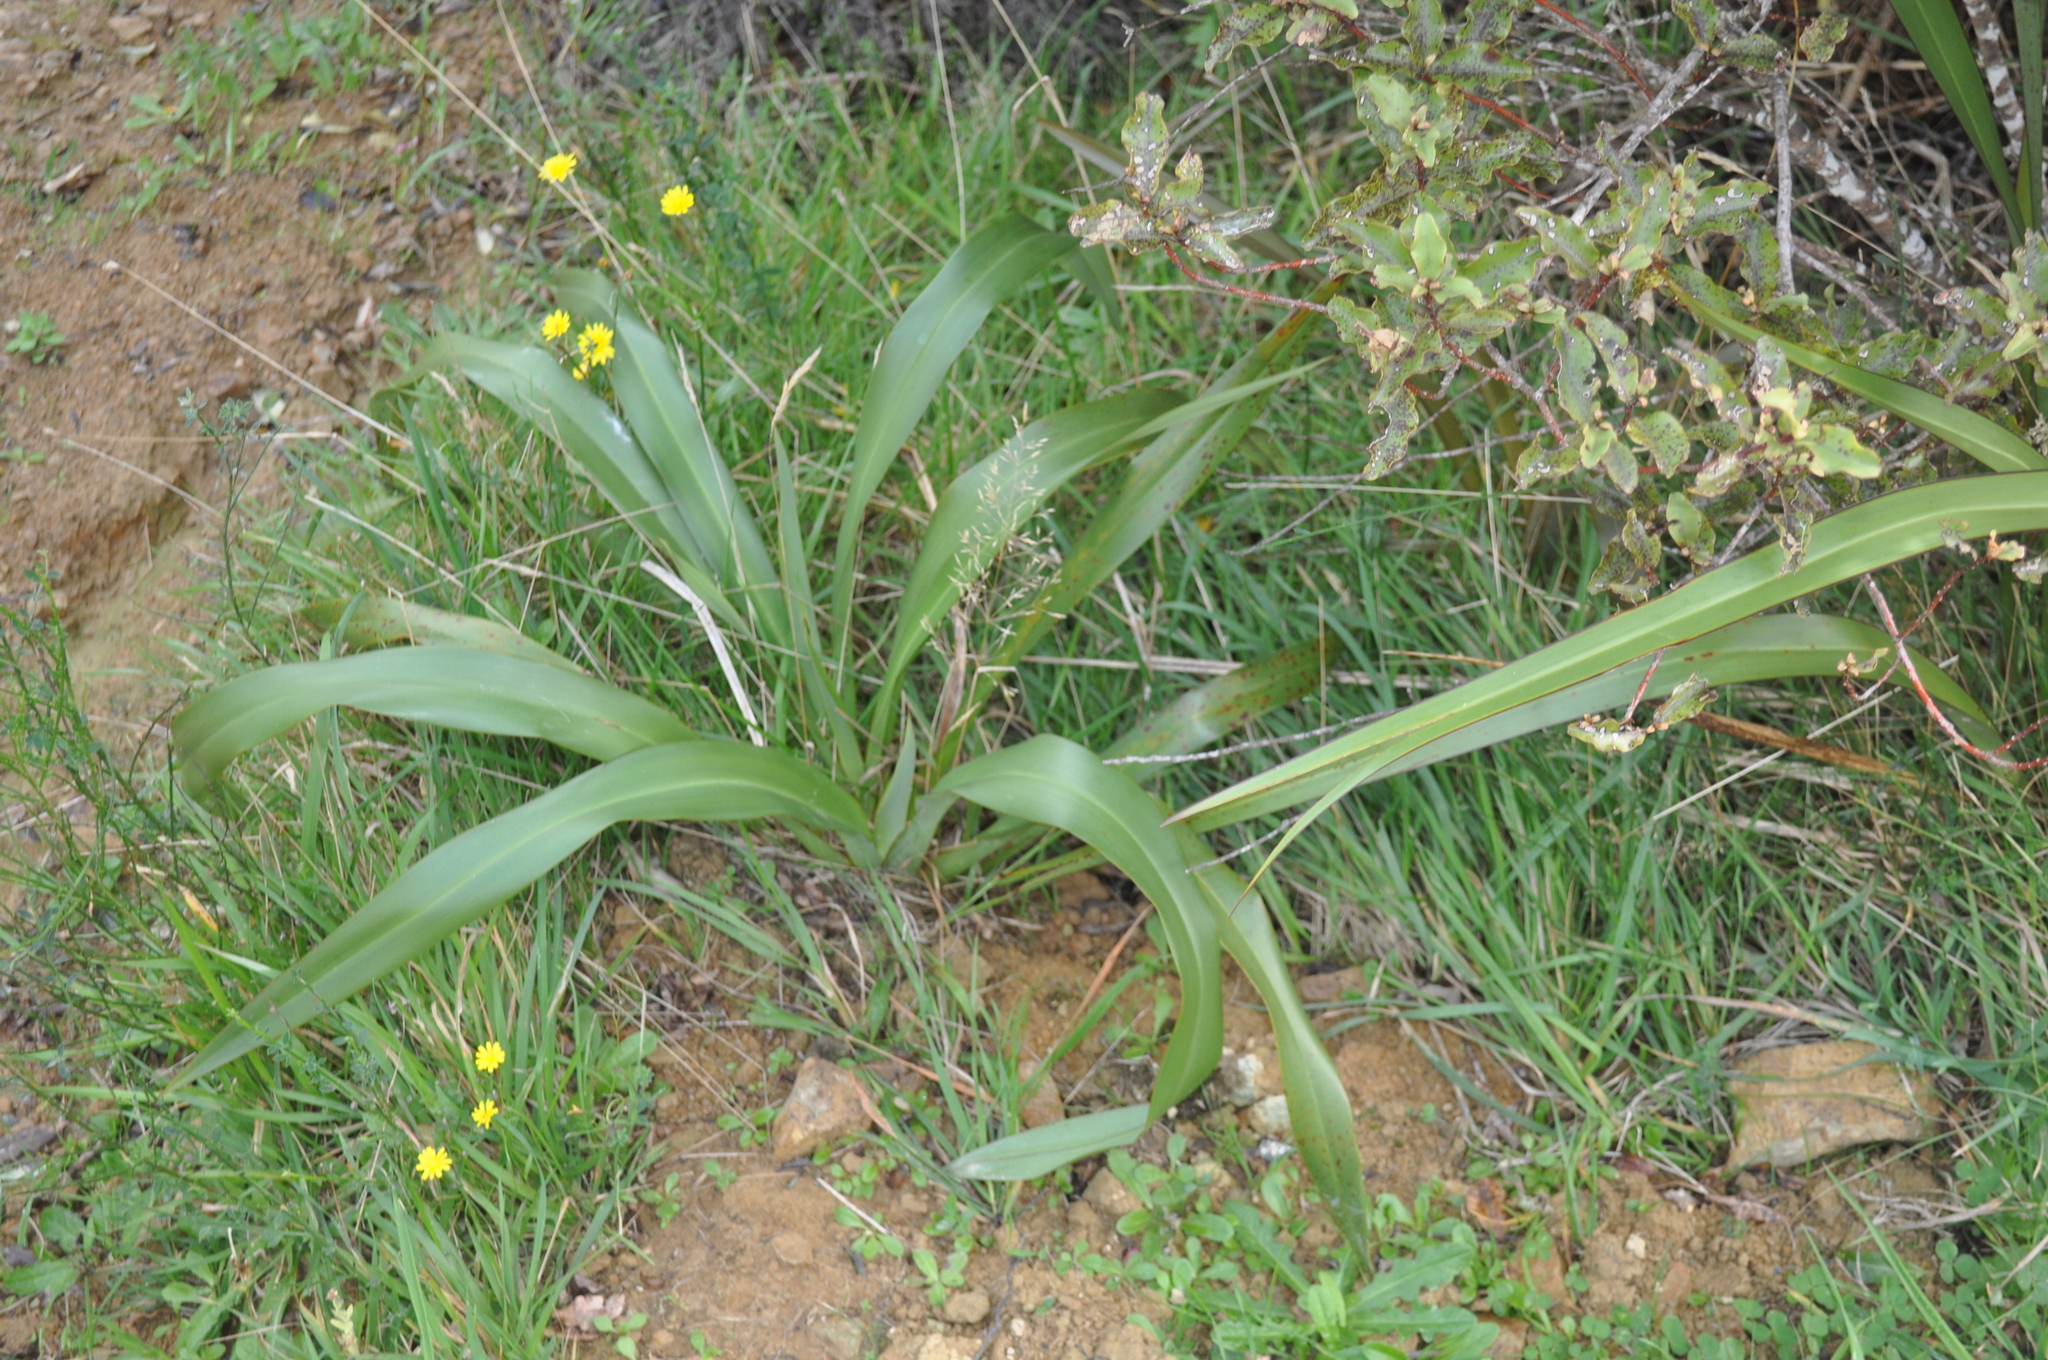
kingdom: Plantae
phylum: Tracheophyta
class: Liliopsida
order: Asparagales
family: Asphodelaceae
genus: Phormium
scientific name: Phormium colensoi
